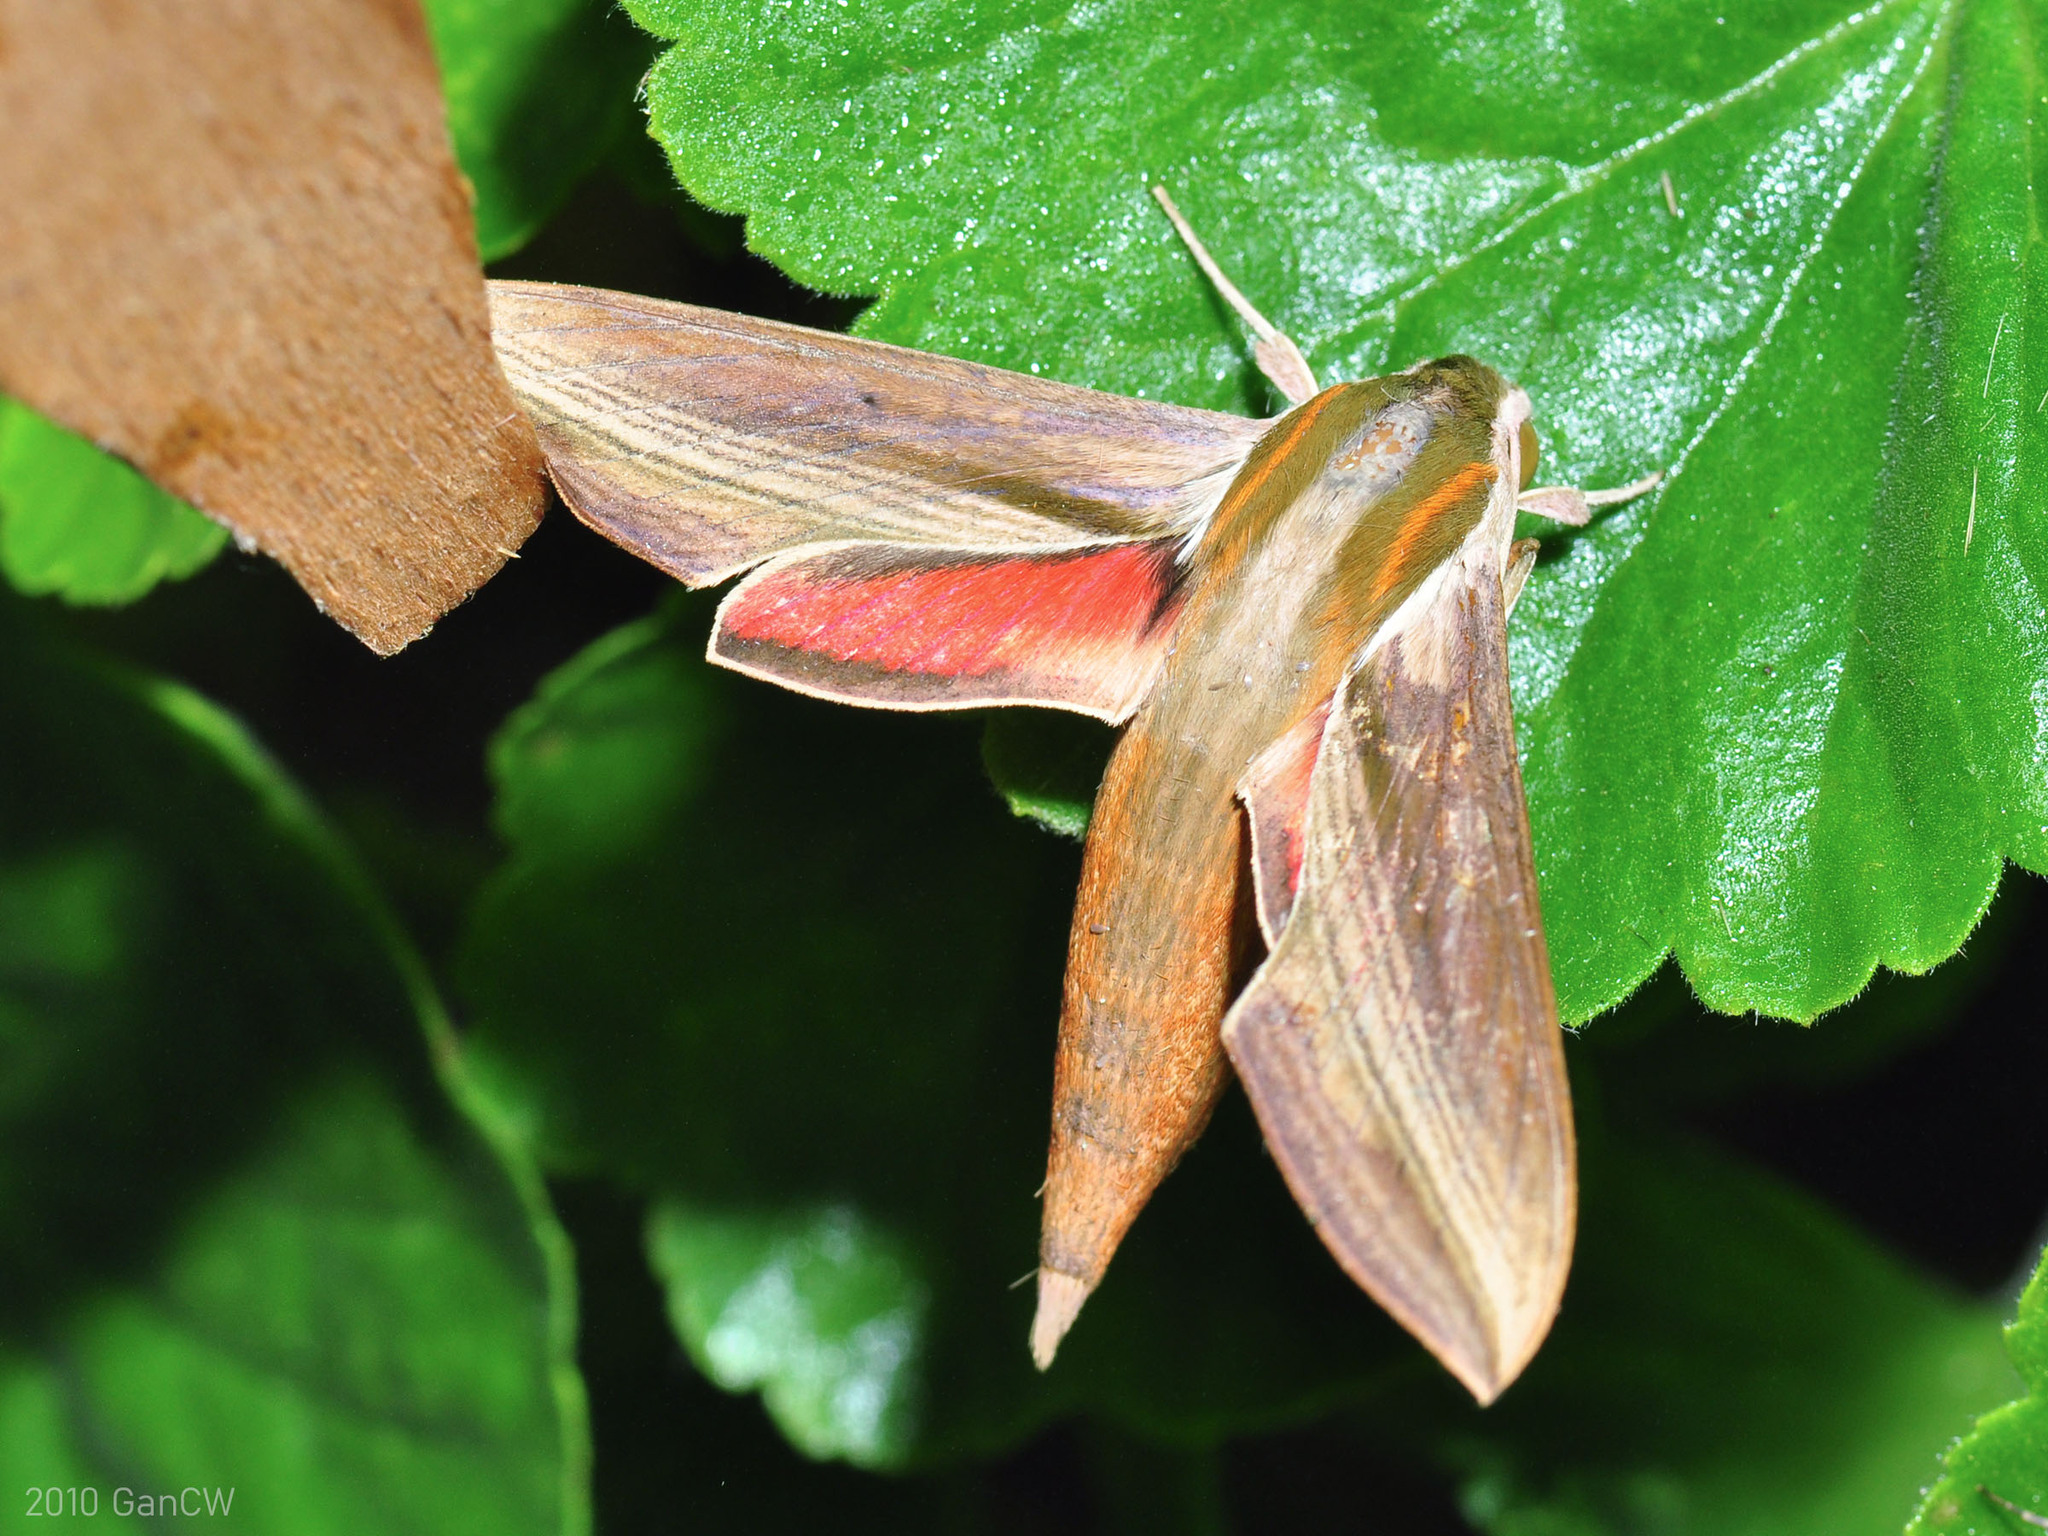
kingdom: Animalia
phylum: Arthropoda
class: Insecta
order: Lepidoptera
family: Sphingidae
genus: Hippotion
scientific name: Hippotion echeclus
